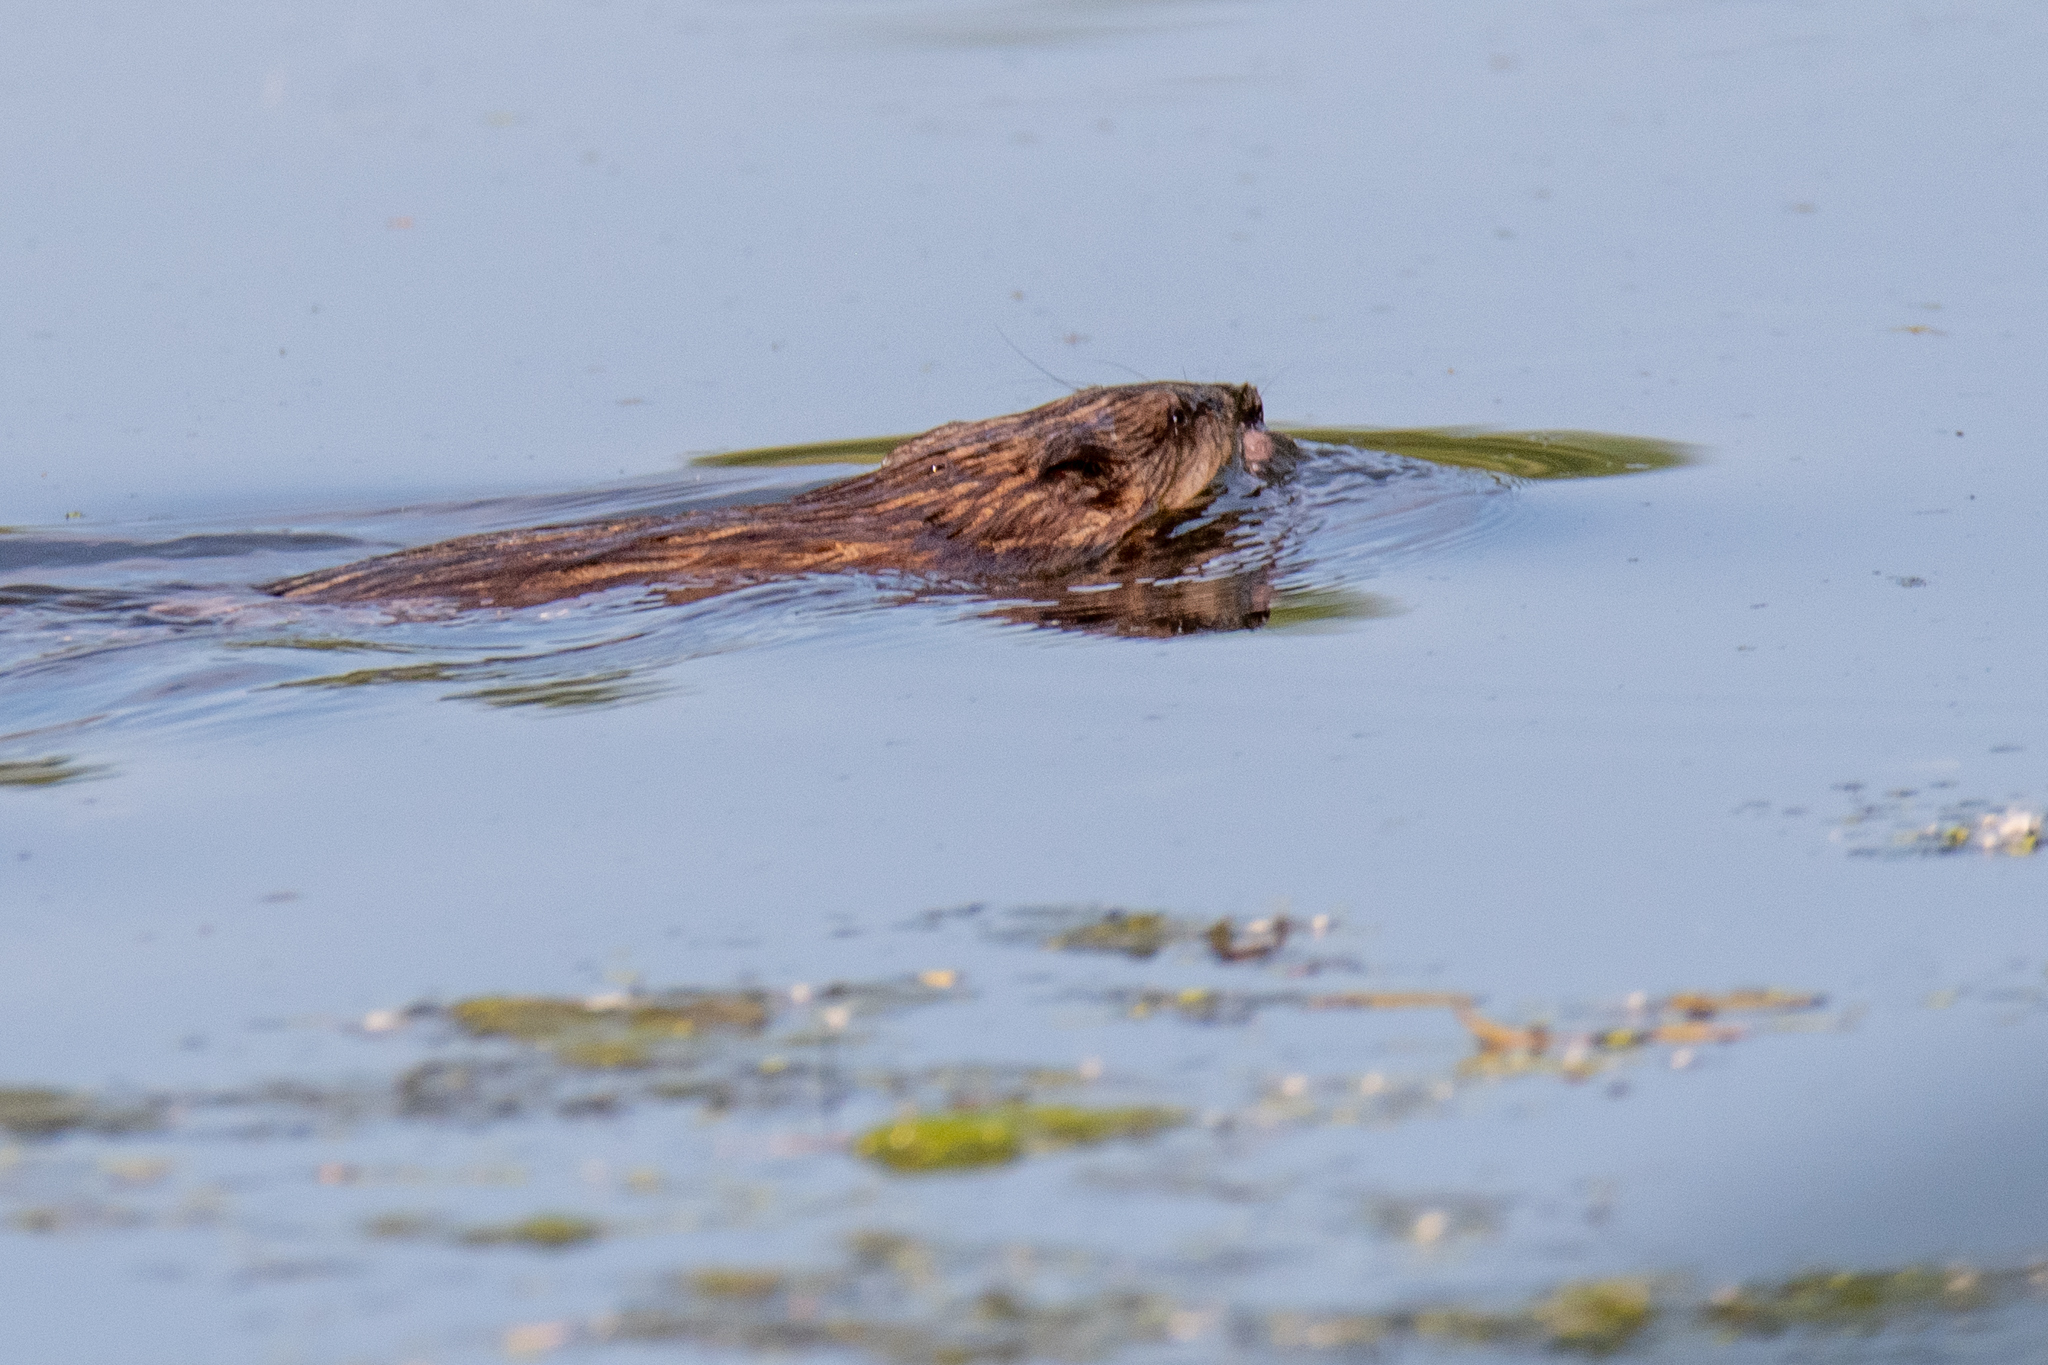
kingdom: Animalia
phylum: Chordata
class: Mammalia
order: Rodentia
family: Cricetidae
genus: Ondatra
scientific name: Ondatra zibethicus
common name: Muskrat
